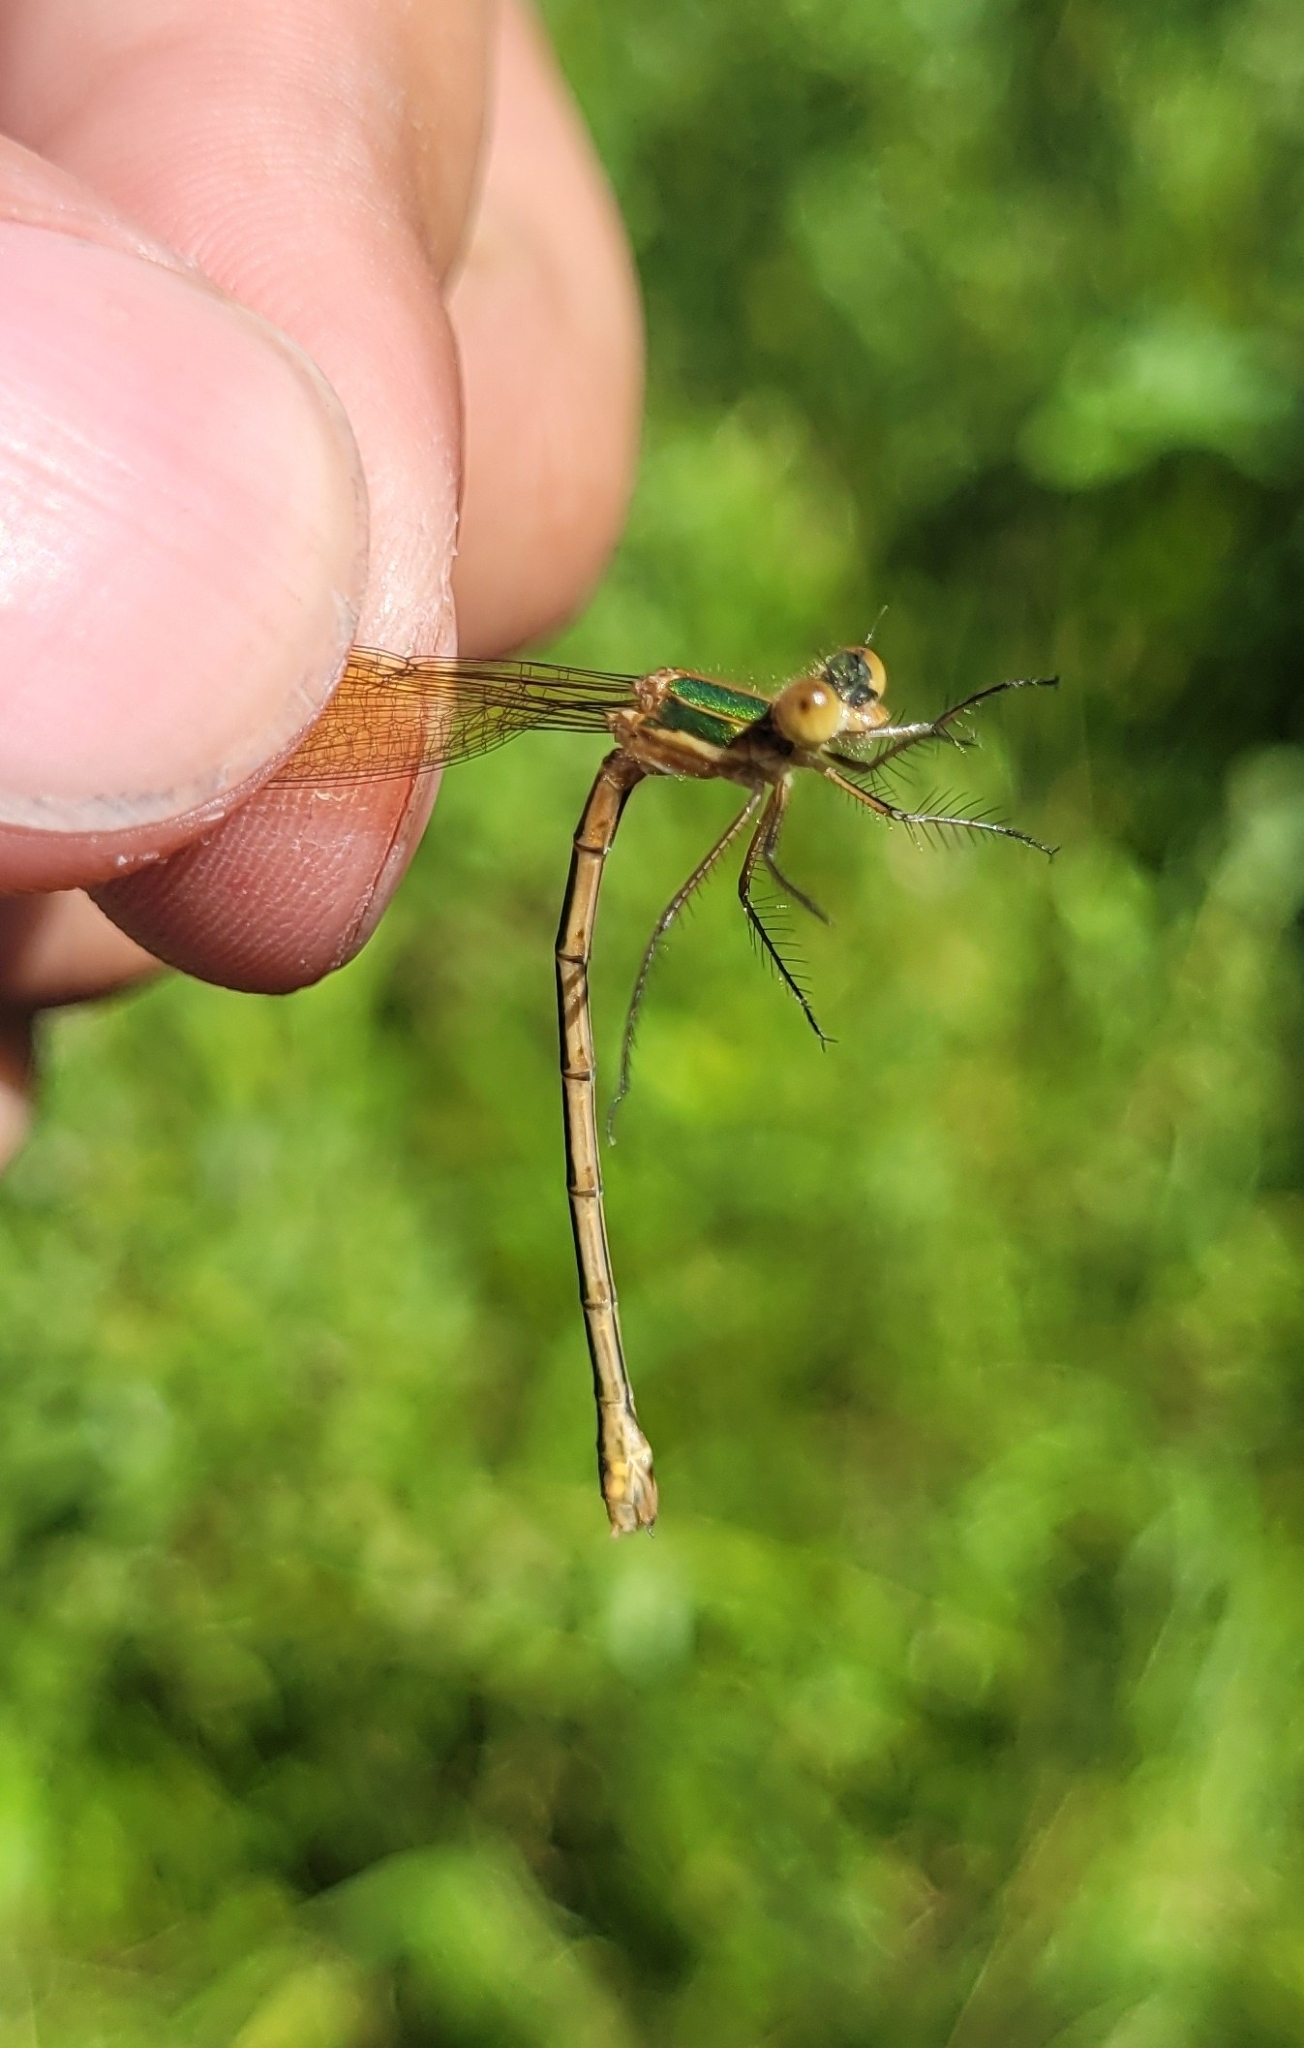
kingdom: Animalia
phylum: Arthropoda
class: Insecta
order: Odonata
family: Lestidae
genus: Lestes
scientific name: Lestes sponsa
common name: Common spreadwing
